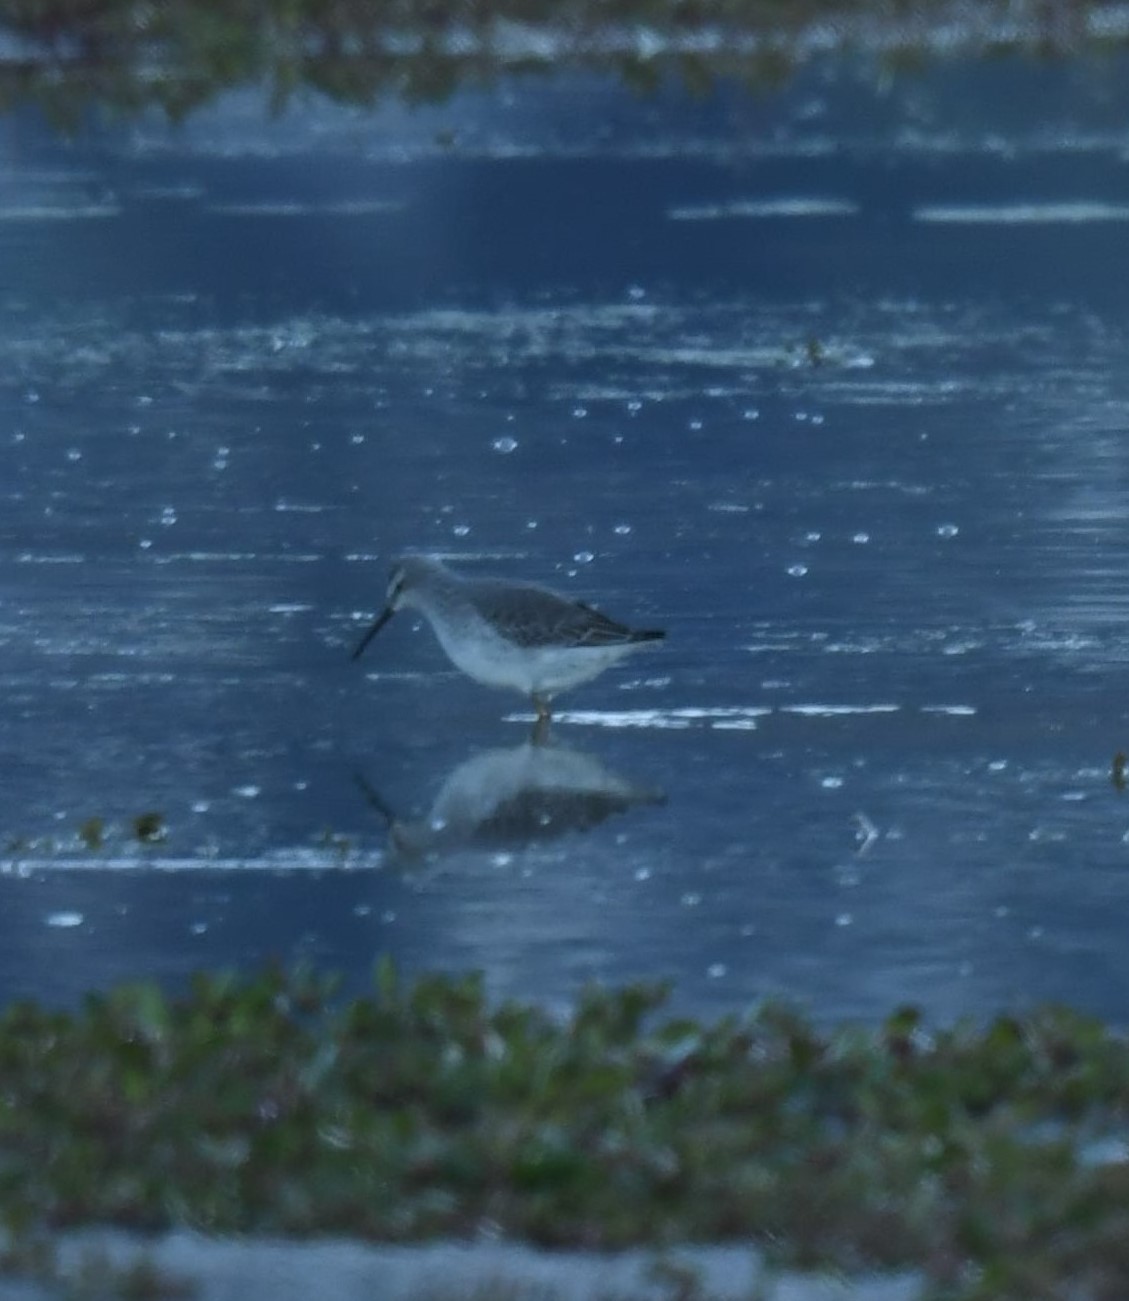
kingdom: Animalia
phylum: Chordata
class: Aves
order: Charadriiformes
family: Scolopacidae
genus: Calidris
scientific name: Calidris himantopus
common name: Stilt sandpiper
